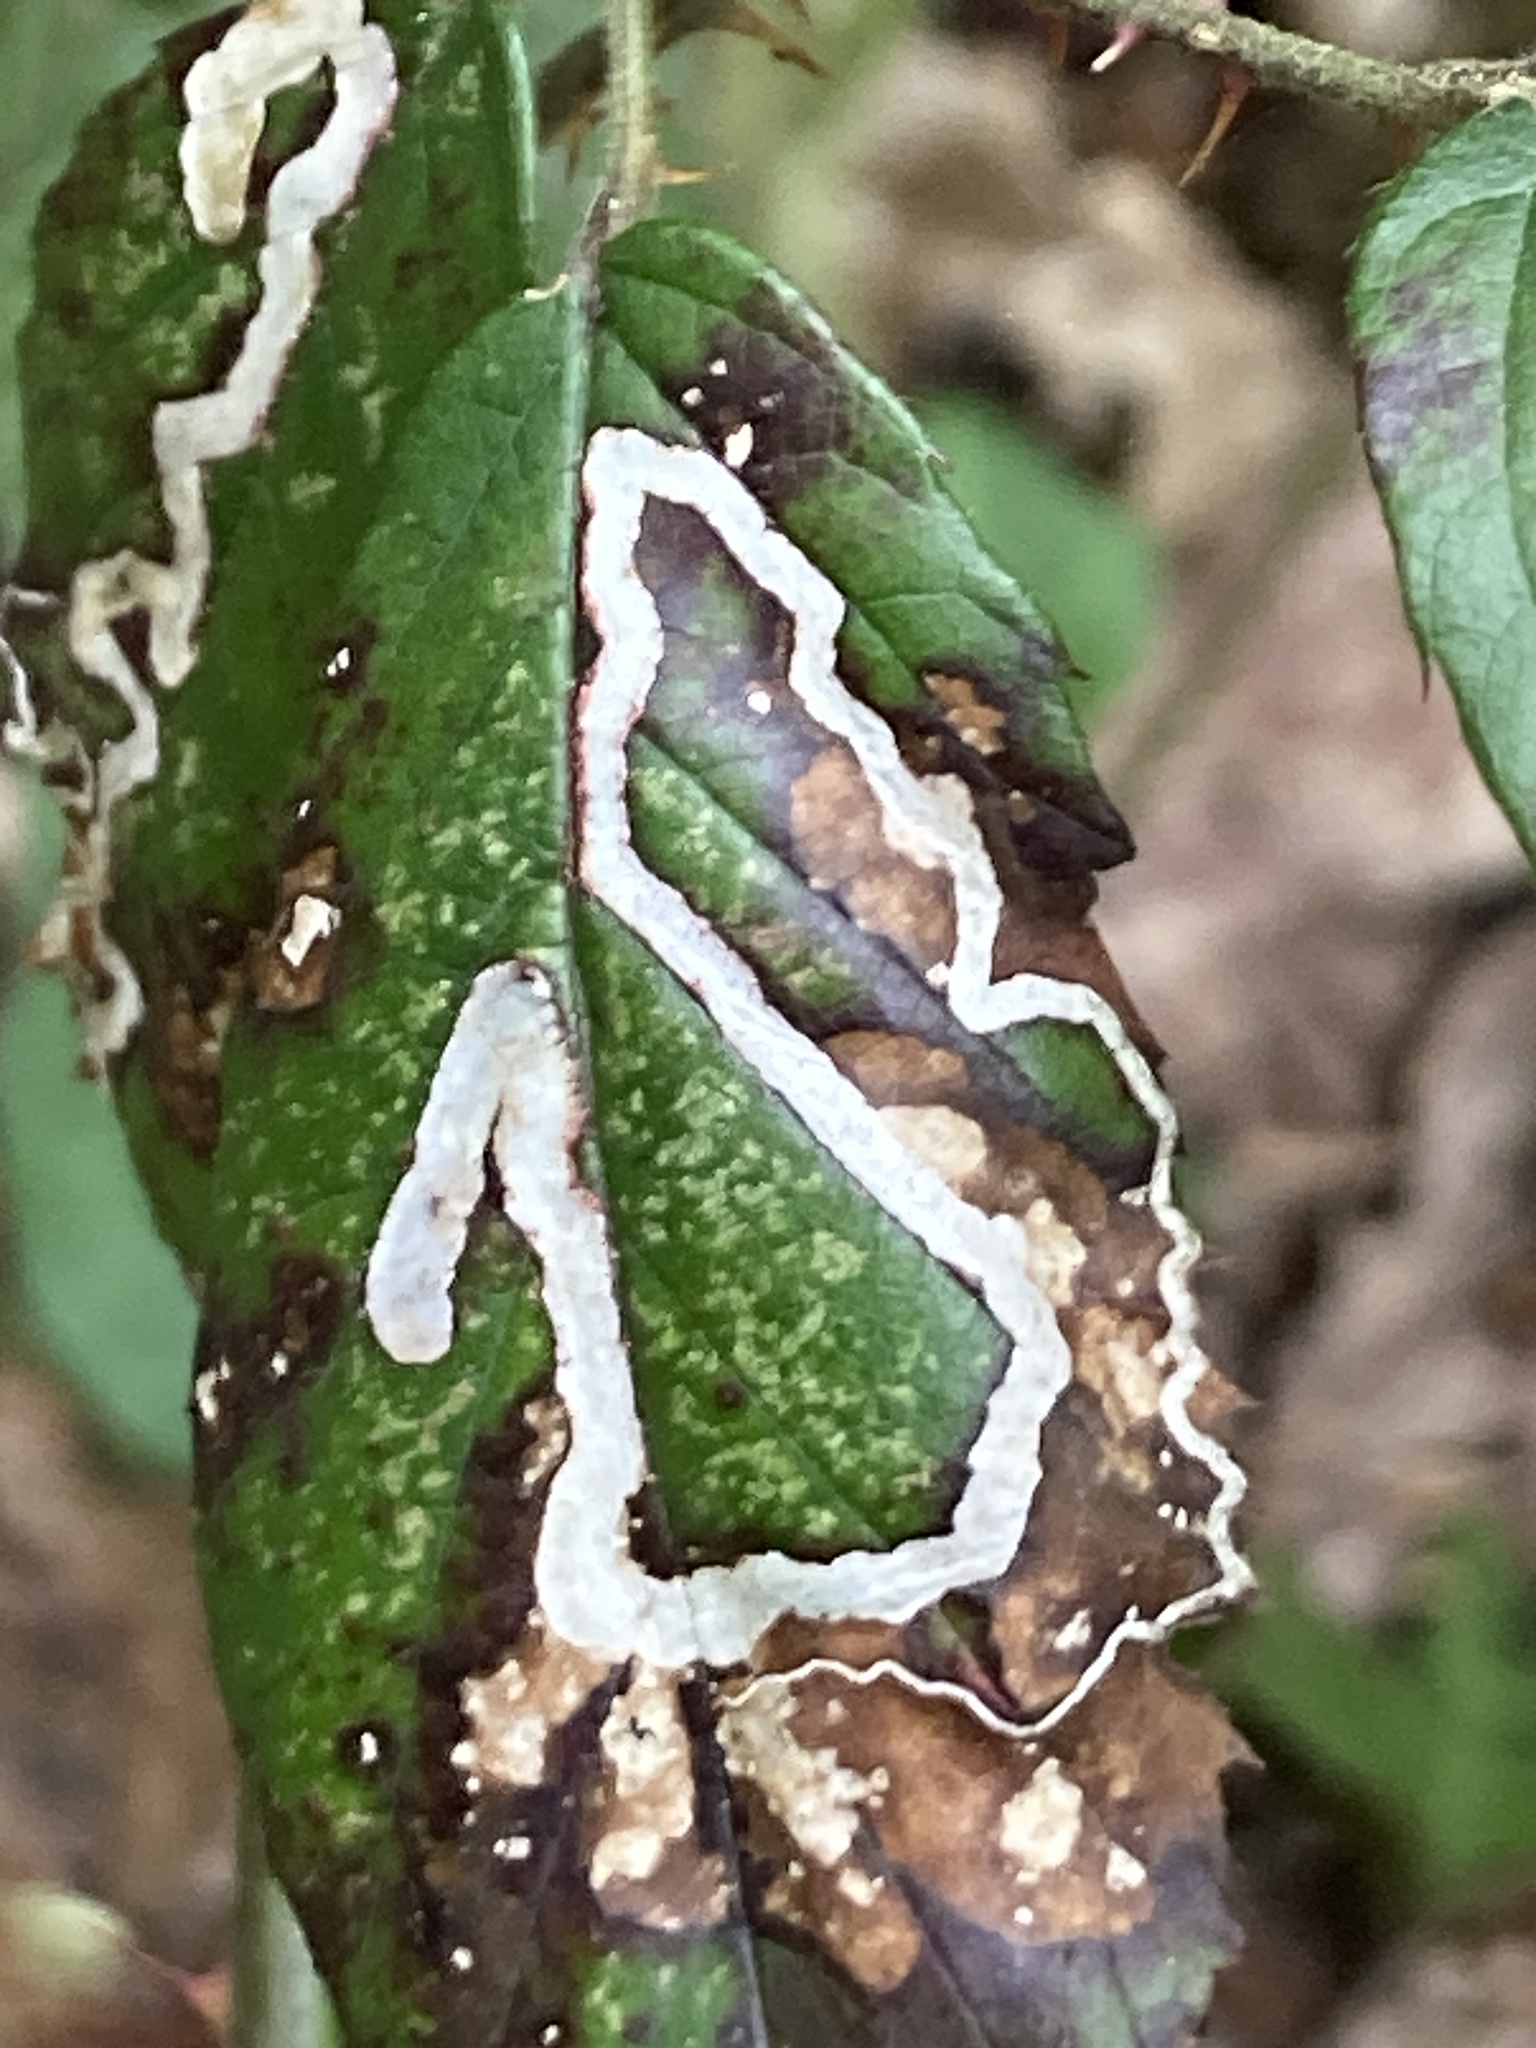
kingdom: Animalia
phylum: Arthropoda
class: Insecta
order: Lepidoptera
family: Nepticulidae
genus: Stigmella
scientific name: Stigmella aurella
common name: Golden pigmy
